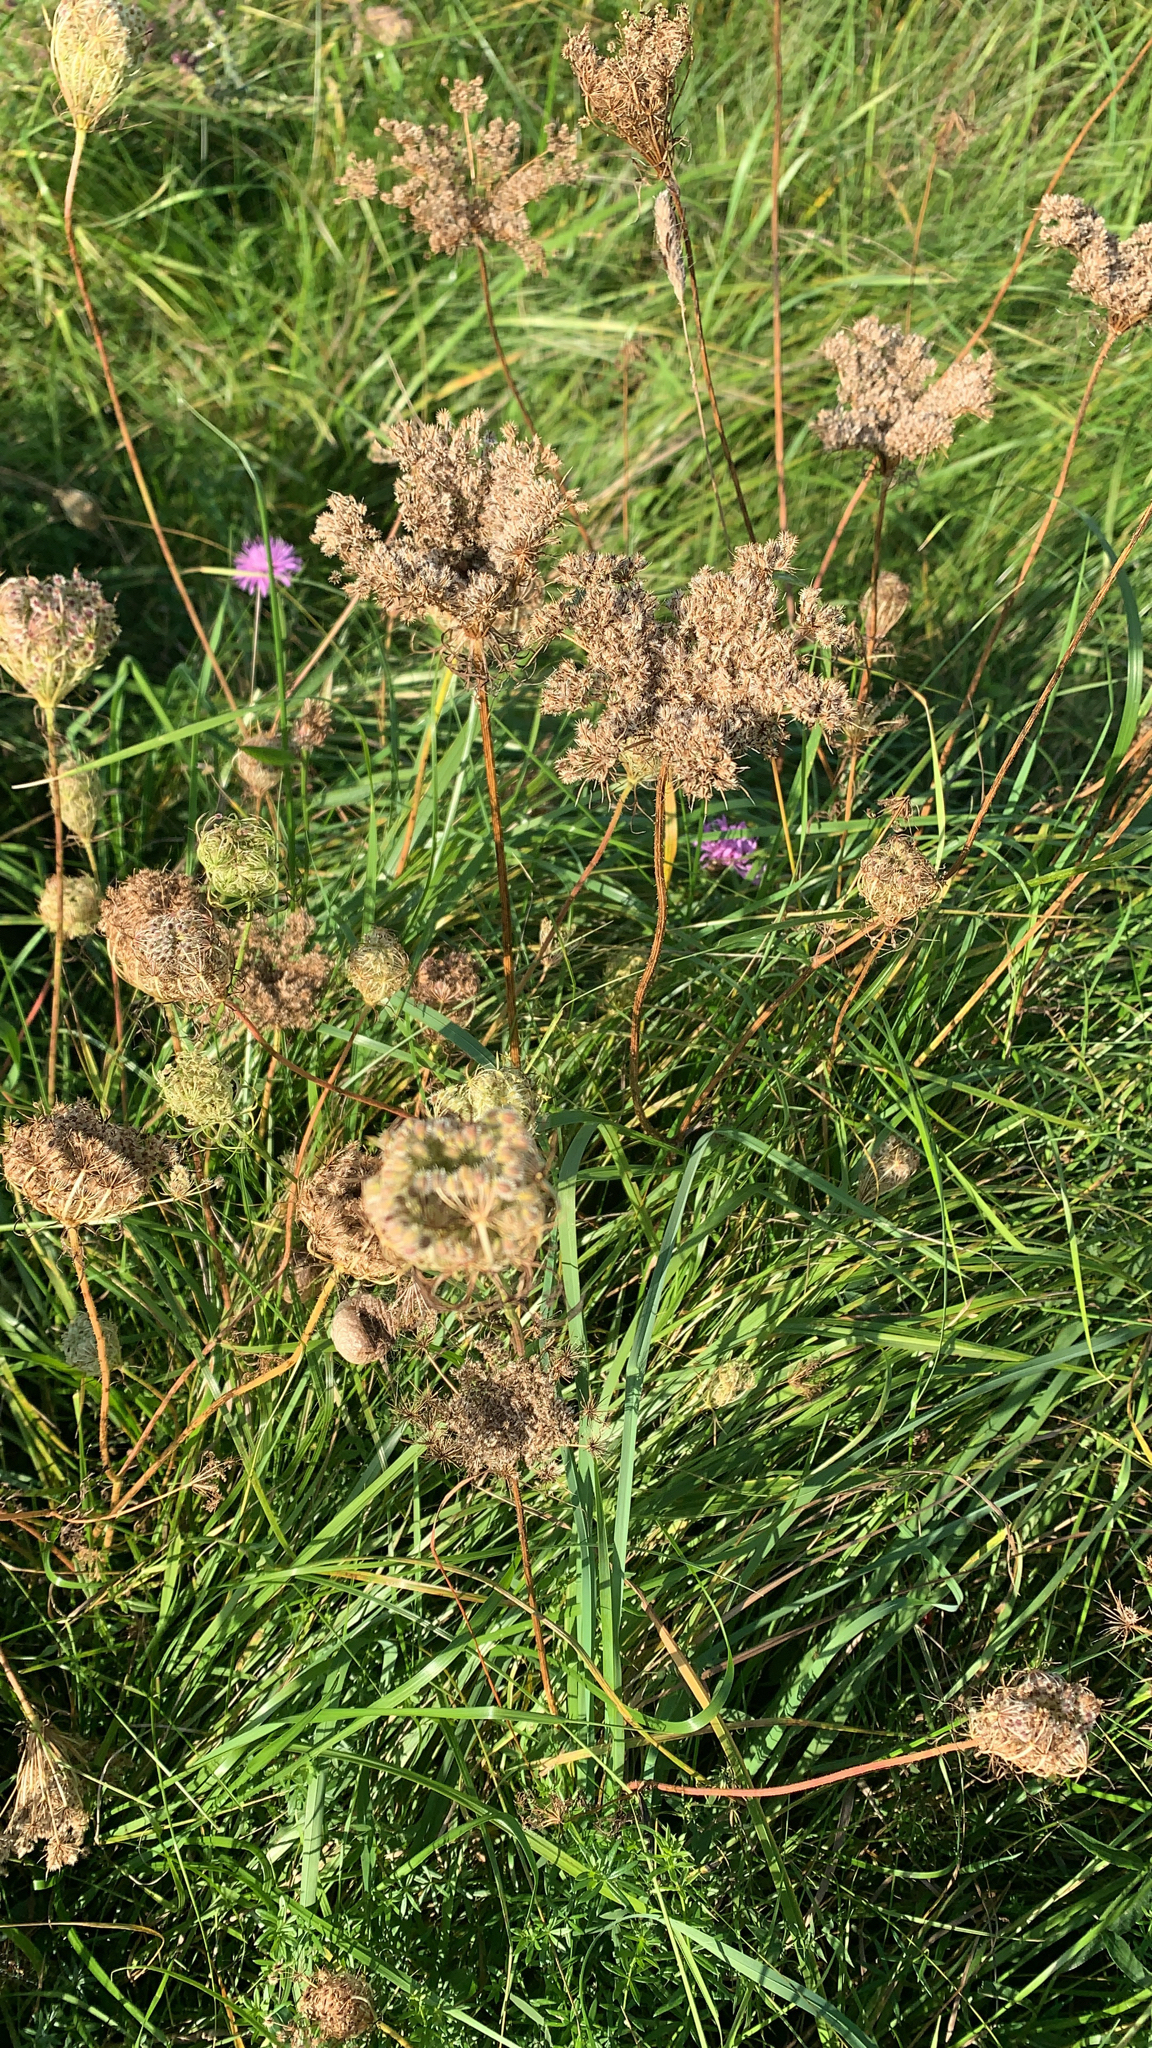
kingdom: Plantae
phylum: Tracheophyta
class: Magnoliopsida
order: Apiales
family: Apiaceae
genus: Daucus
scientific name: Daucus carota
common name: Wild carrot
